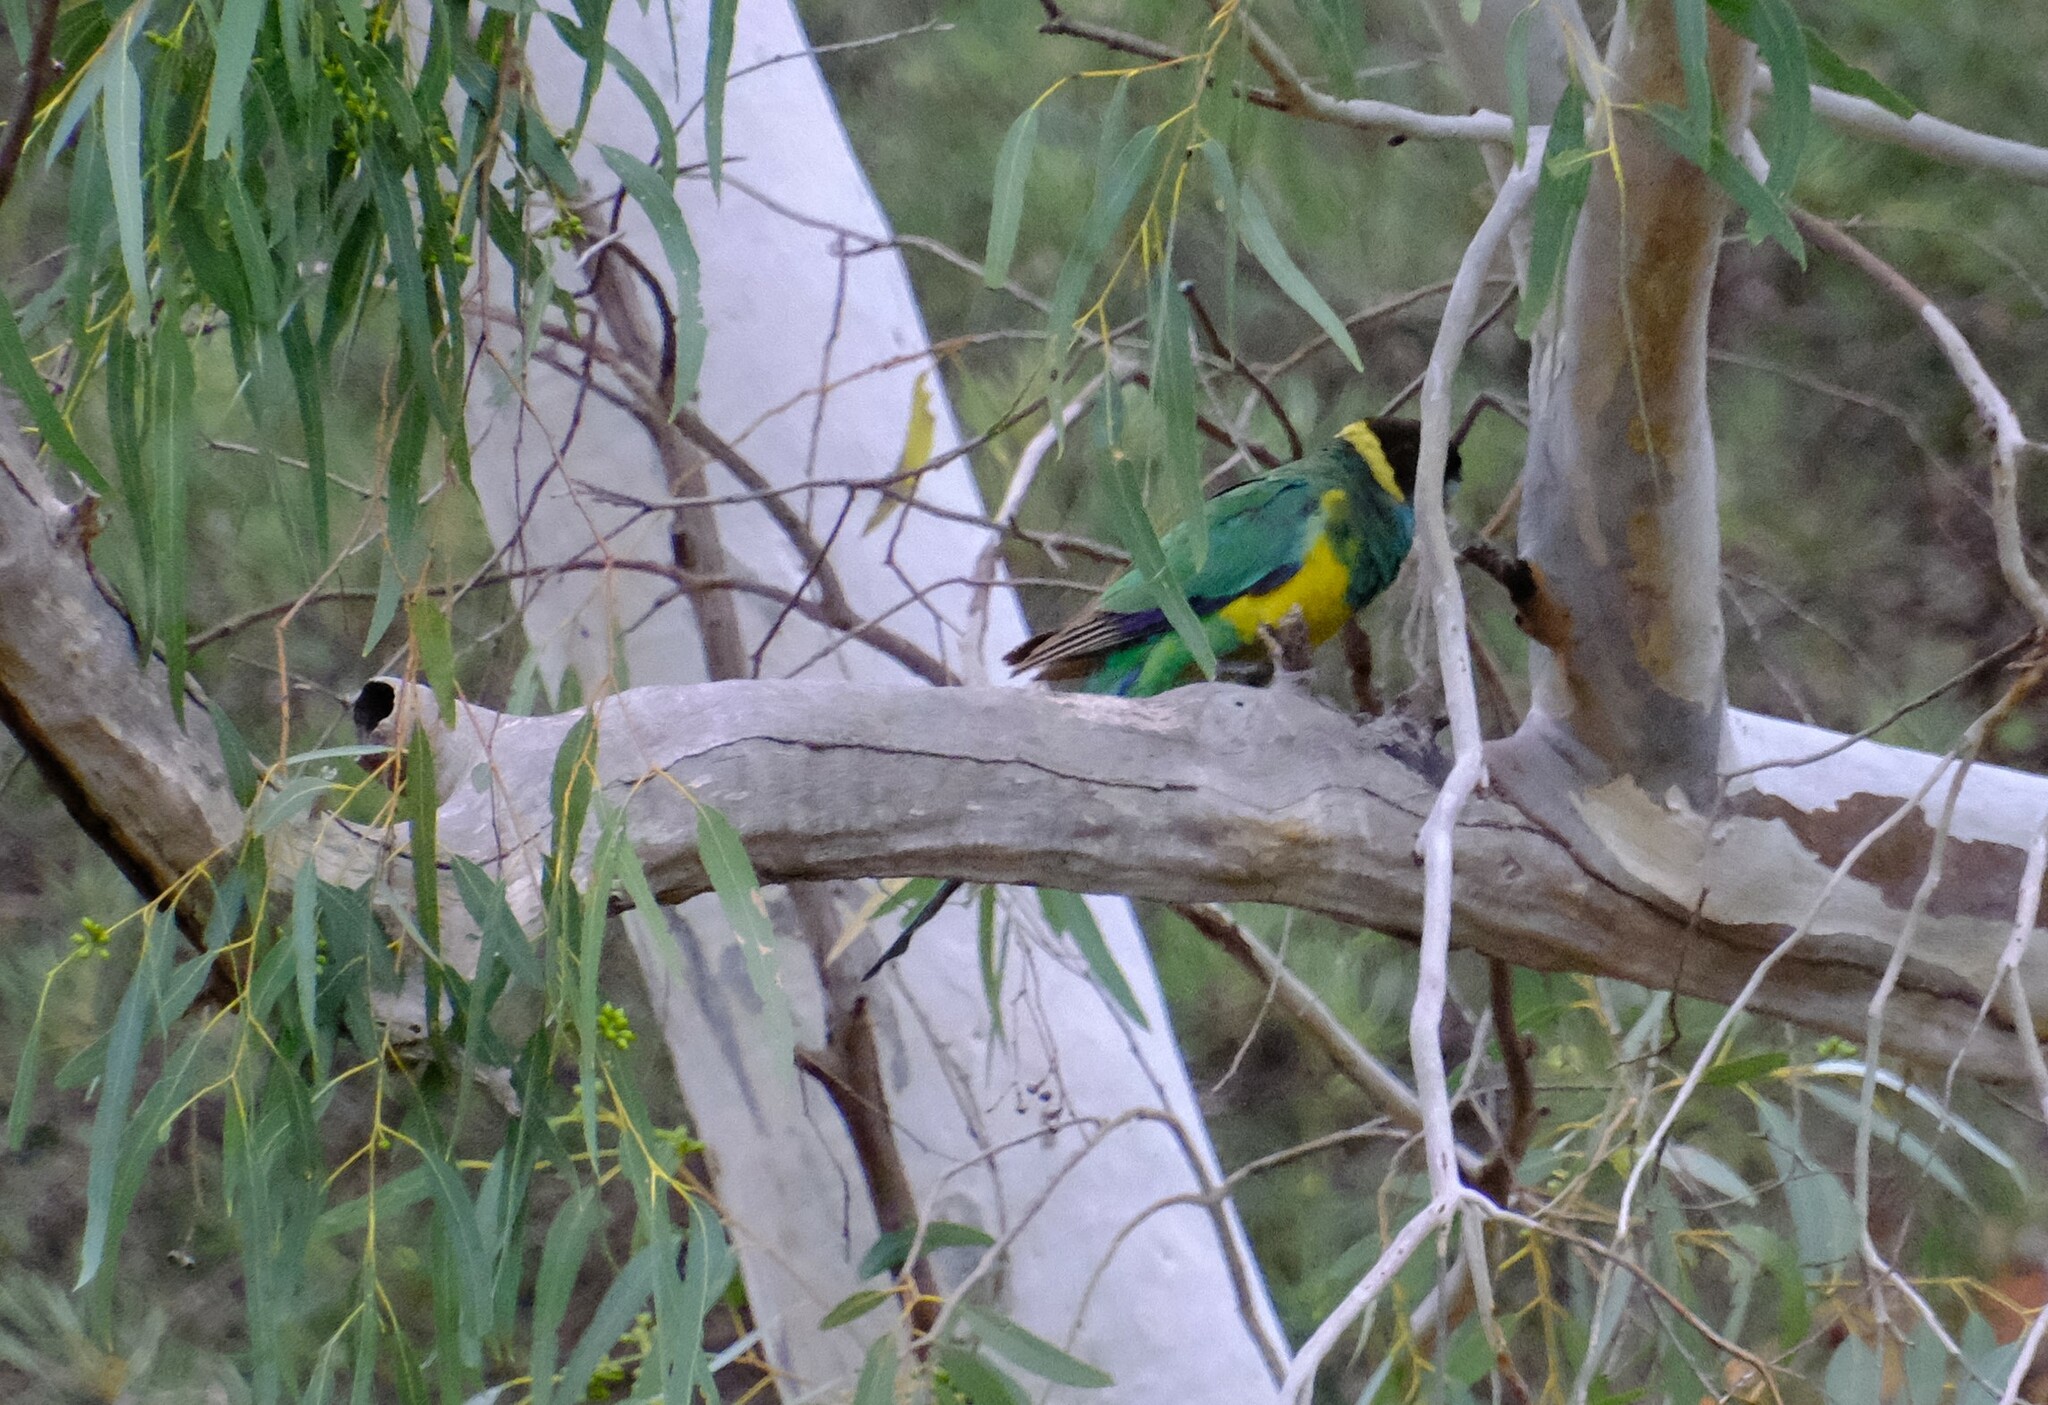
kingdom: Animalia
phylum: Chordata
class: Aves
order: Psittaciformes
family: Psittacidae
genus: Barnardius
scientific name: Barnardius zonarius
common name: Australian ringneck
